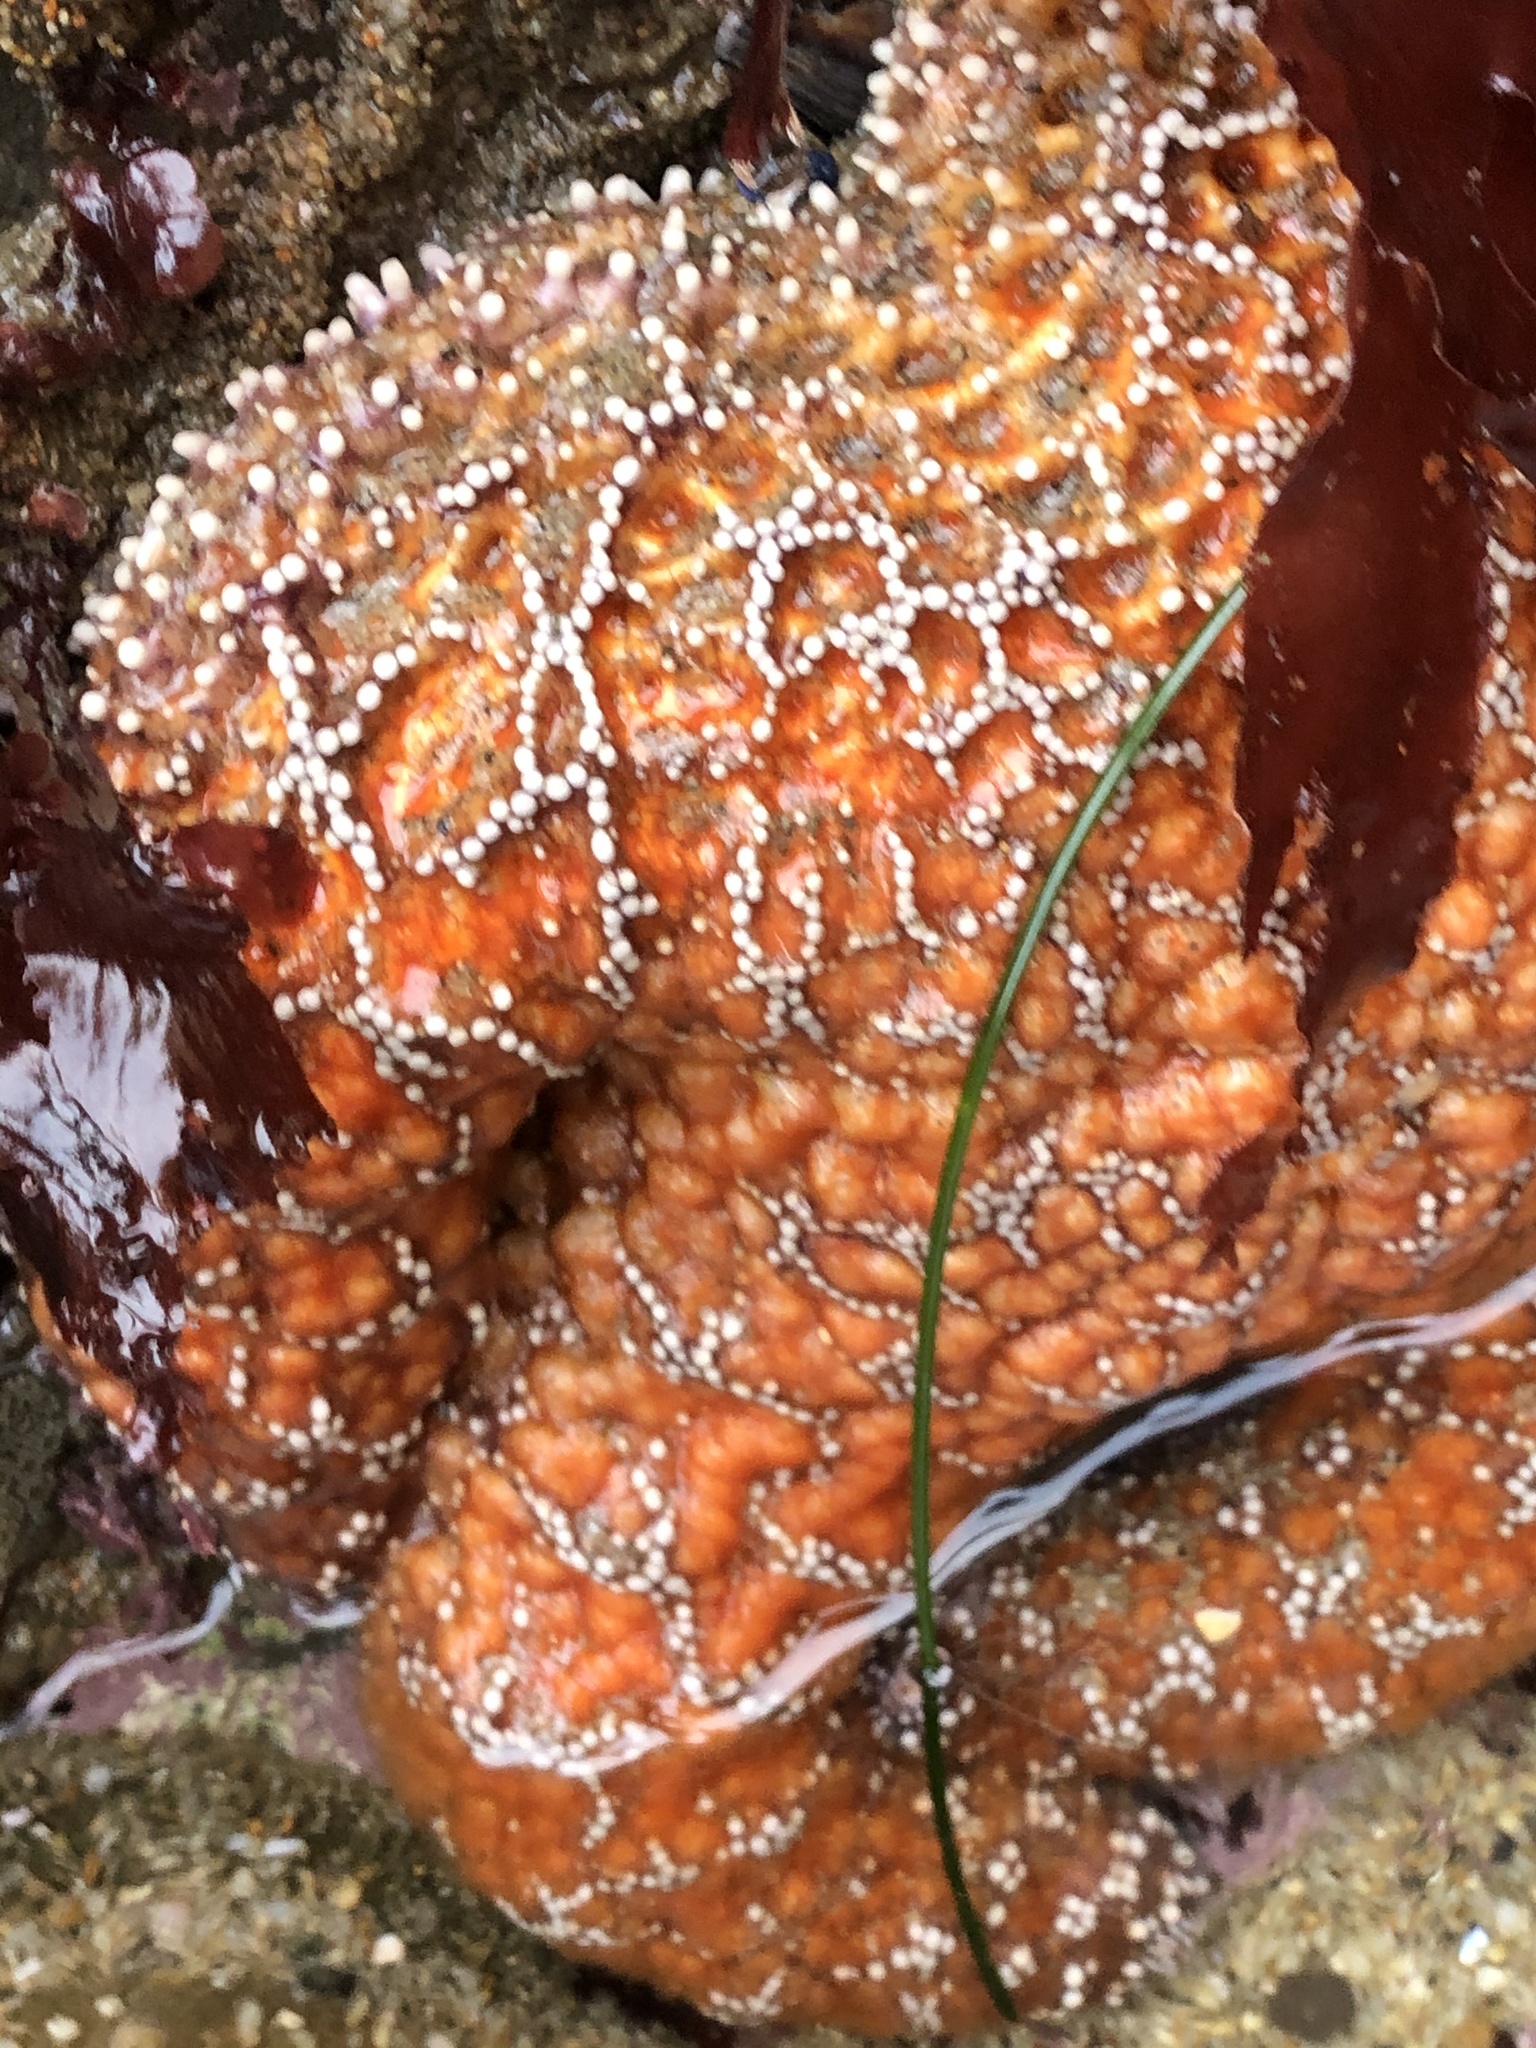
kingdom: Animalia
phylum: Echinodermata
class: Asteroidea
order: Forcipulatida
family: Asteriidae
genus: Pisaster
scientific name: Pisaster ochraceus
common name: Ochre stars
